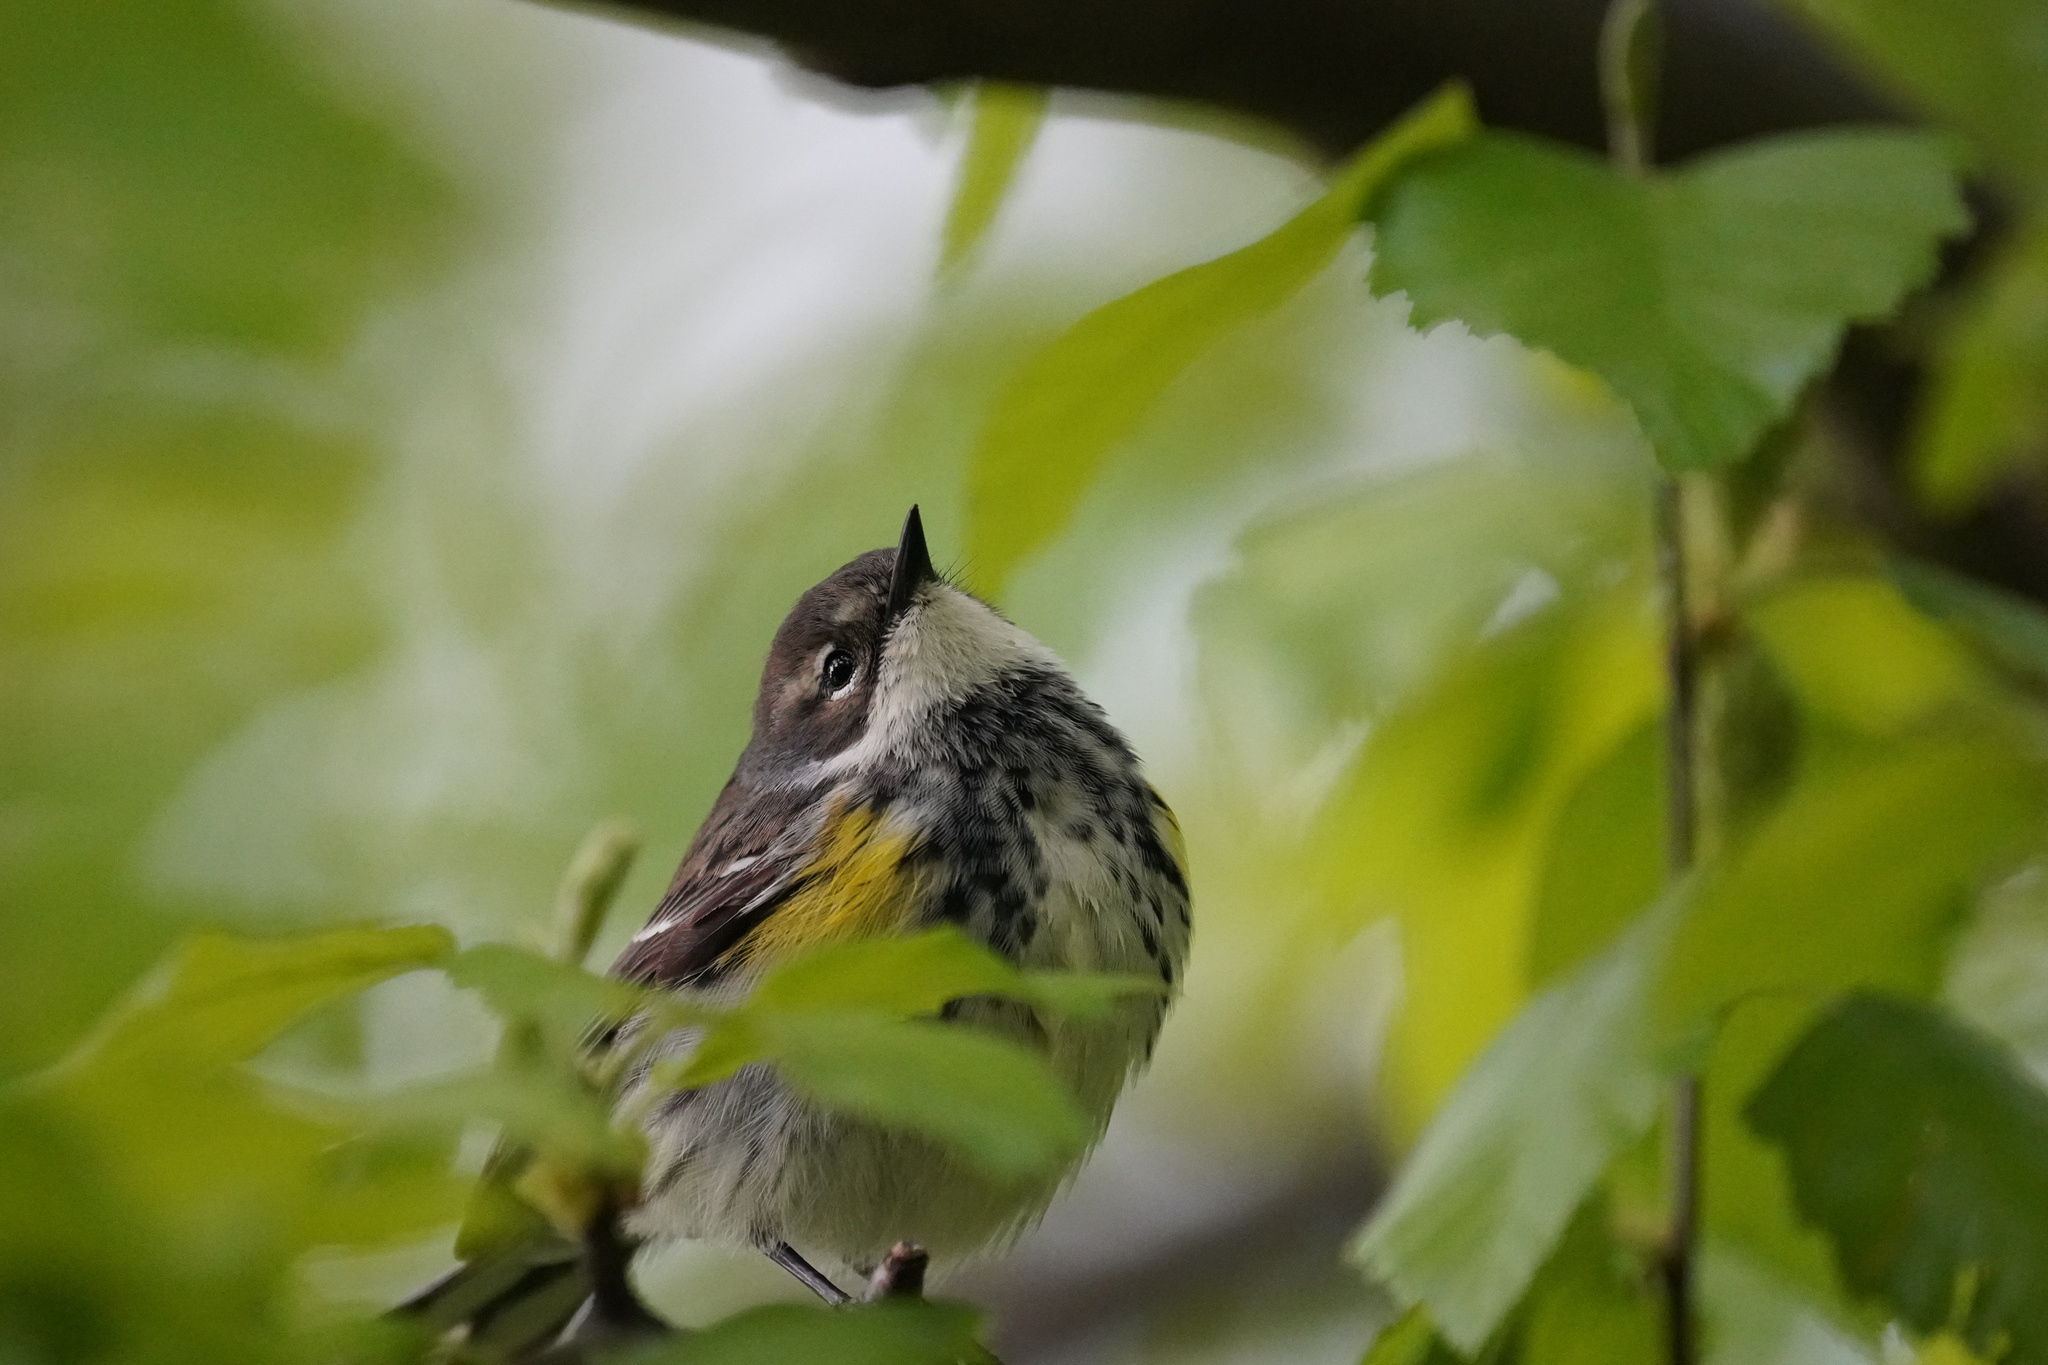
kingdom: Animalia
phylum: Chordata
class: Aves
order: Passeriformes
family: Parulidae
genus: Setophaga
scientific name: Setophaga coronata
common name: Myrtle warbler
